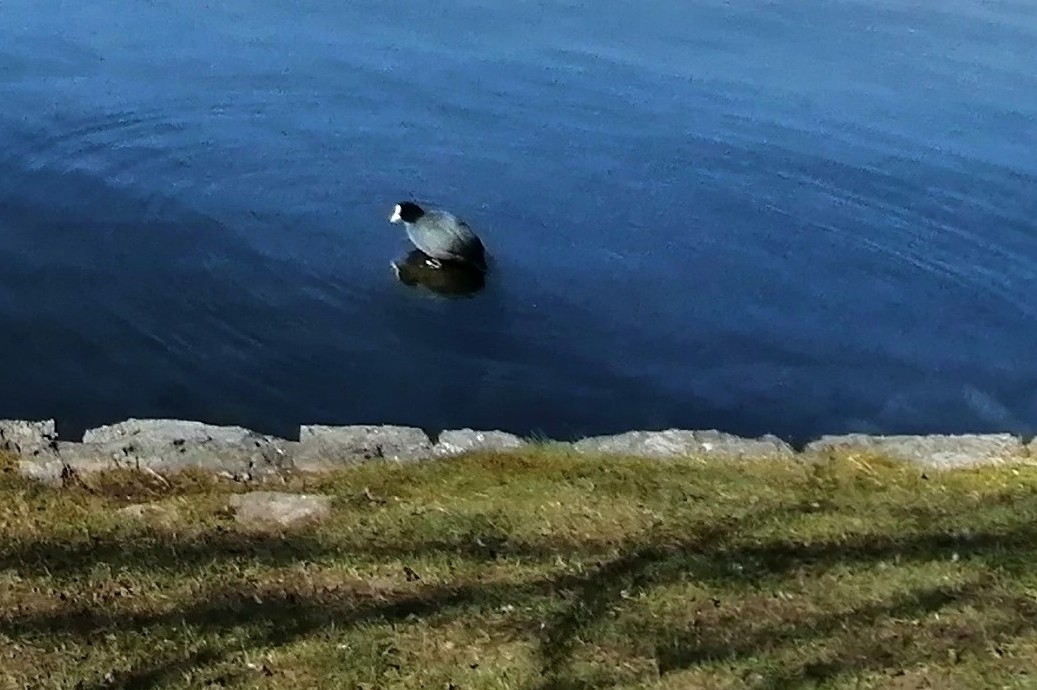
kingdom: Animalia
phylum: Chordata
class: Aves
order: Gruiformes
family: Rallidae
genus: Fulica
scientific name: Fulica atra
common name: Eurasian coot
